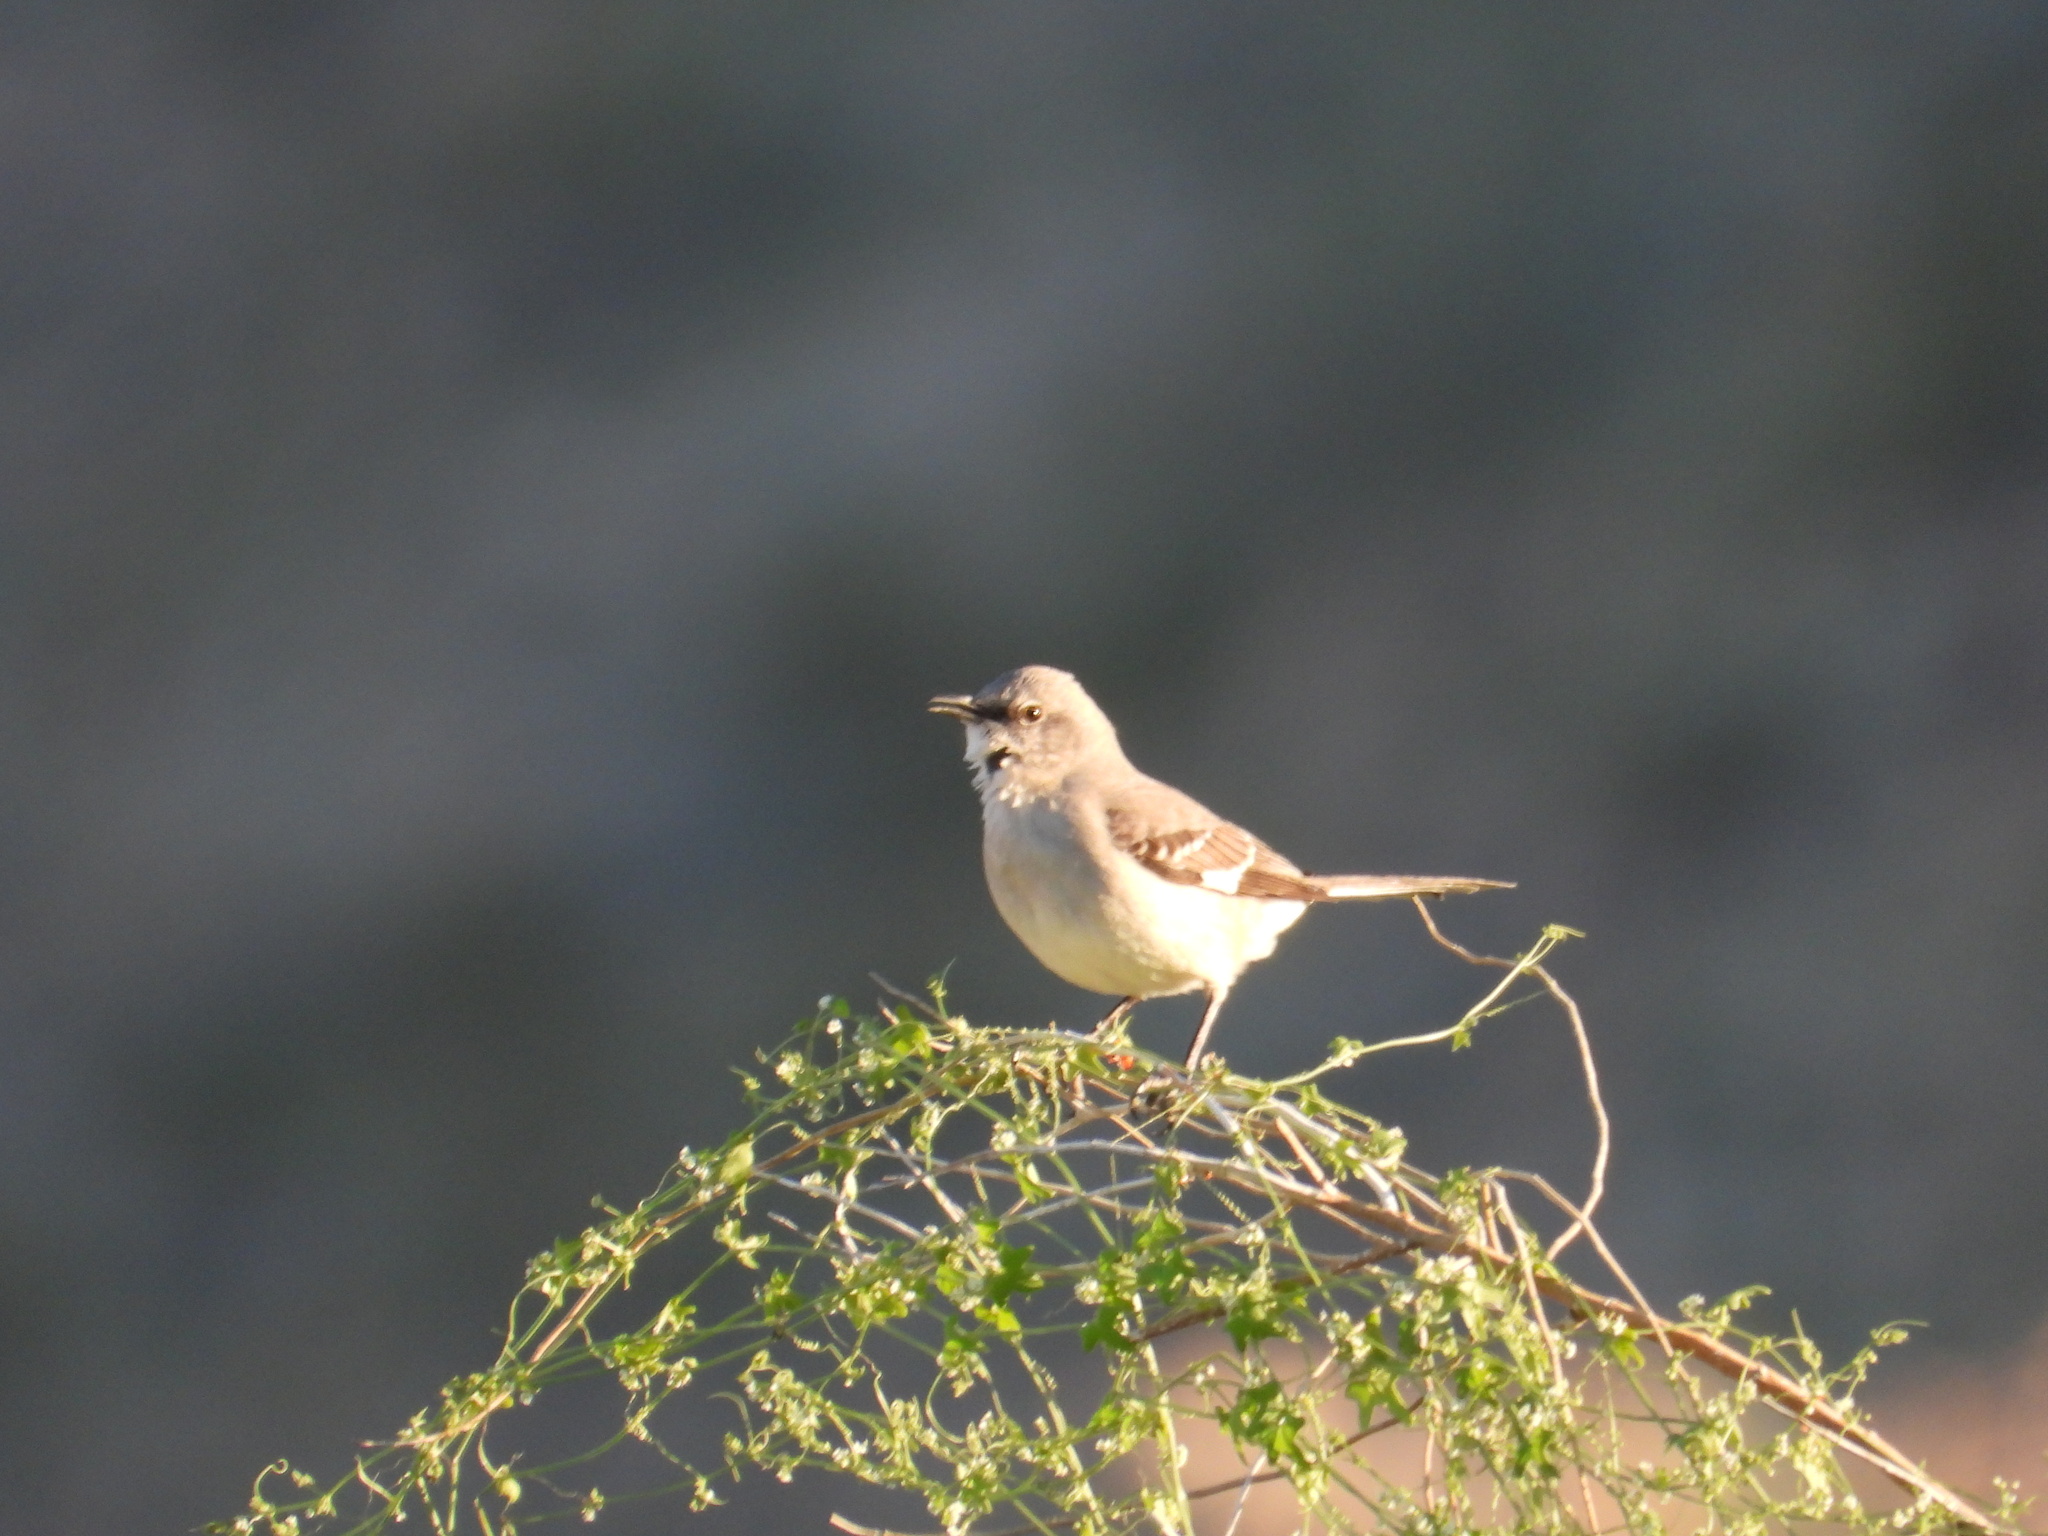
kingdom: Animalia
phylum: Chordata
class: Aves
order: Passeriformes
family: Mimidae
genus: Mimus
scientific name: Mimus polyglottos
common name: Northern mockingbird
